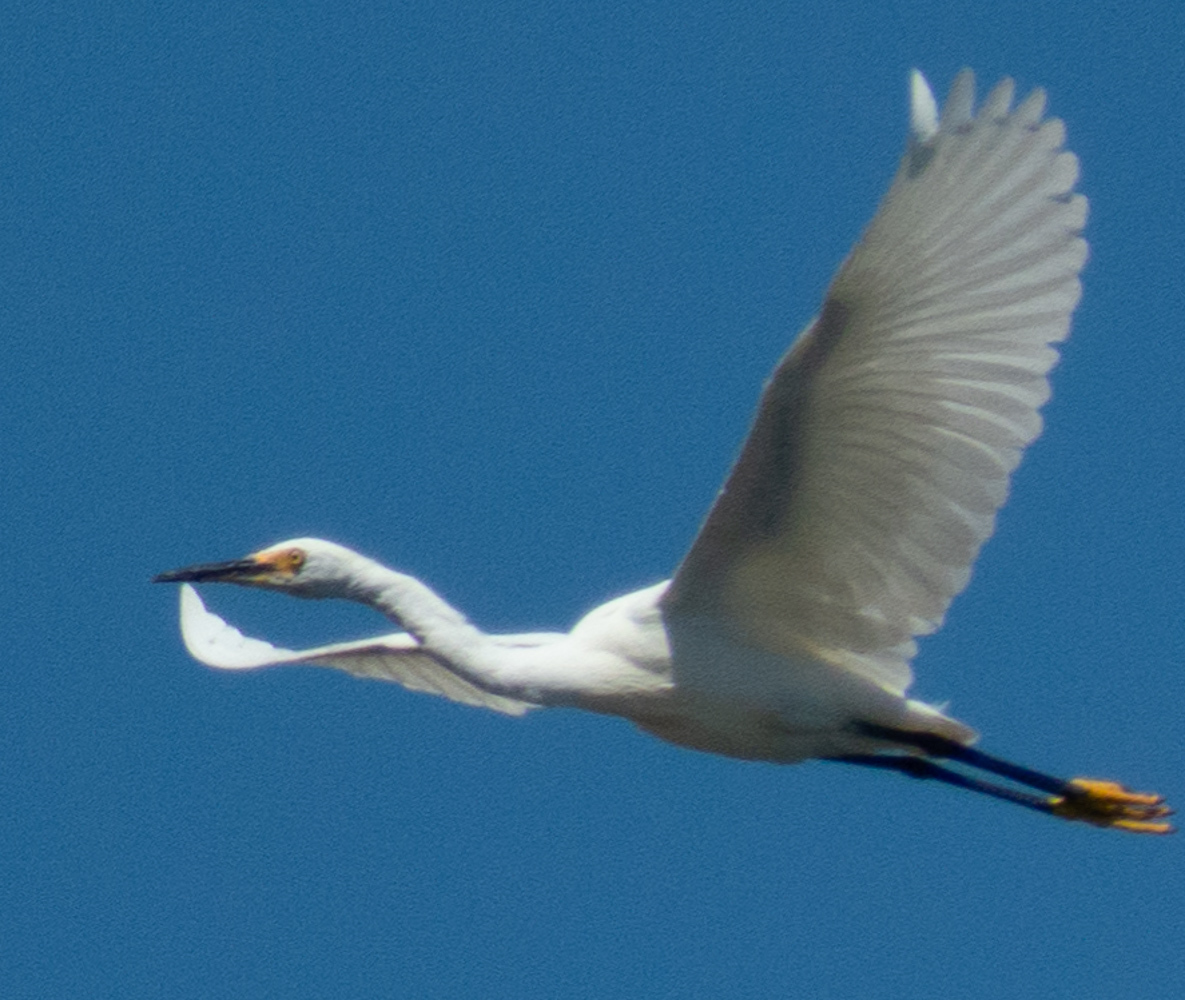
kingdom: Animalia
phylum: Chordata
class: Aves
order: Pelecaniformes
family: Ardeidae
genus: Egretta
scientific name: Egretta thula
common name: Snowy egret
